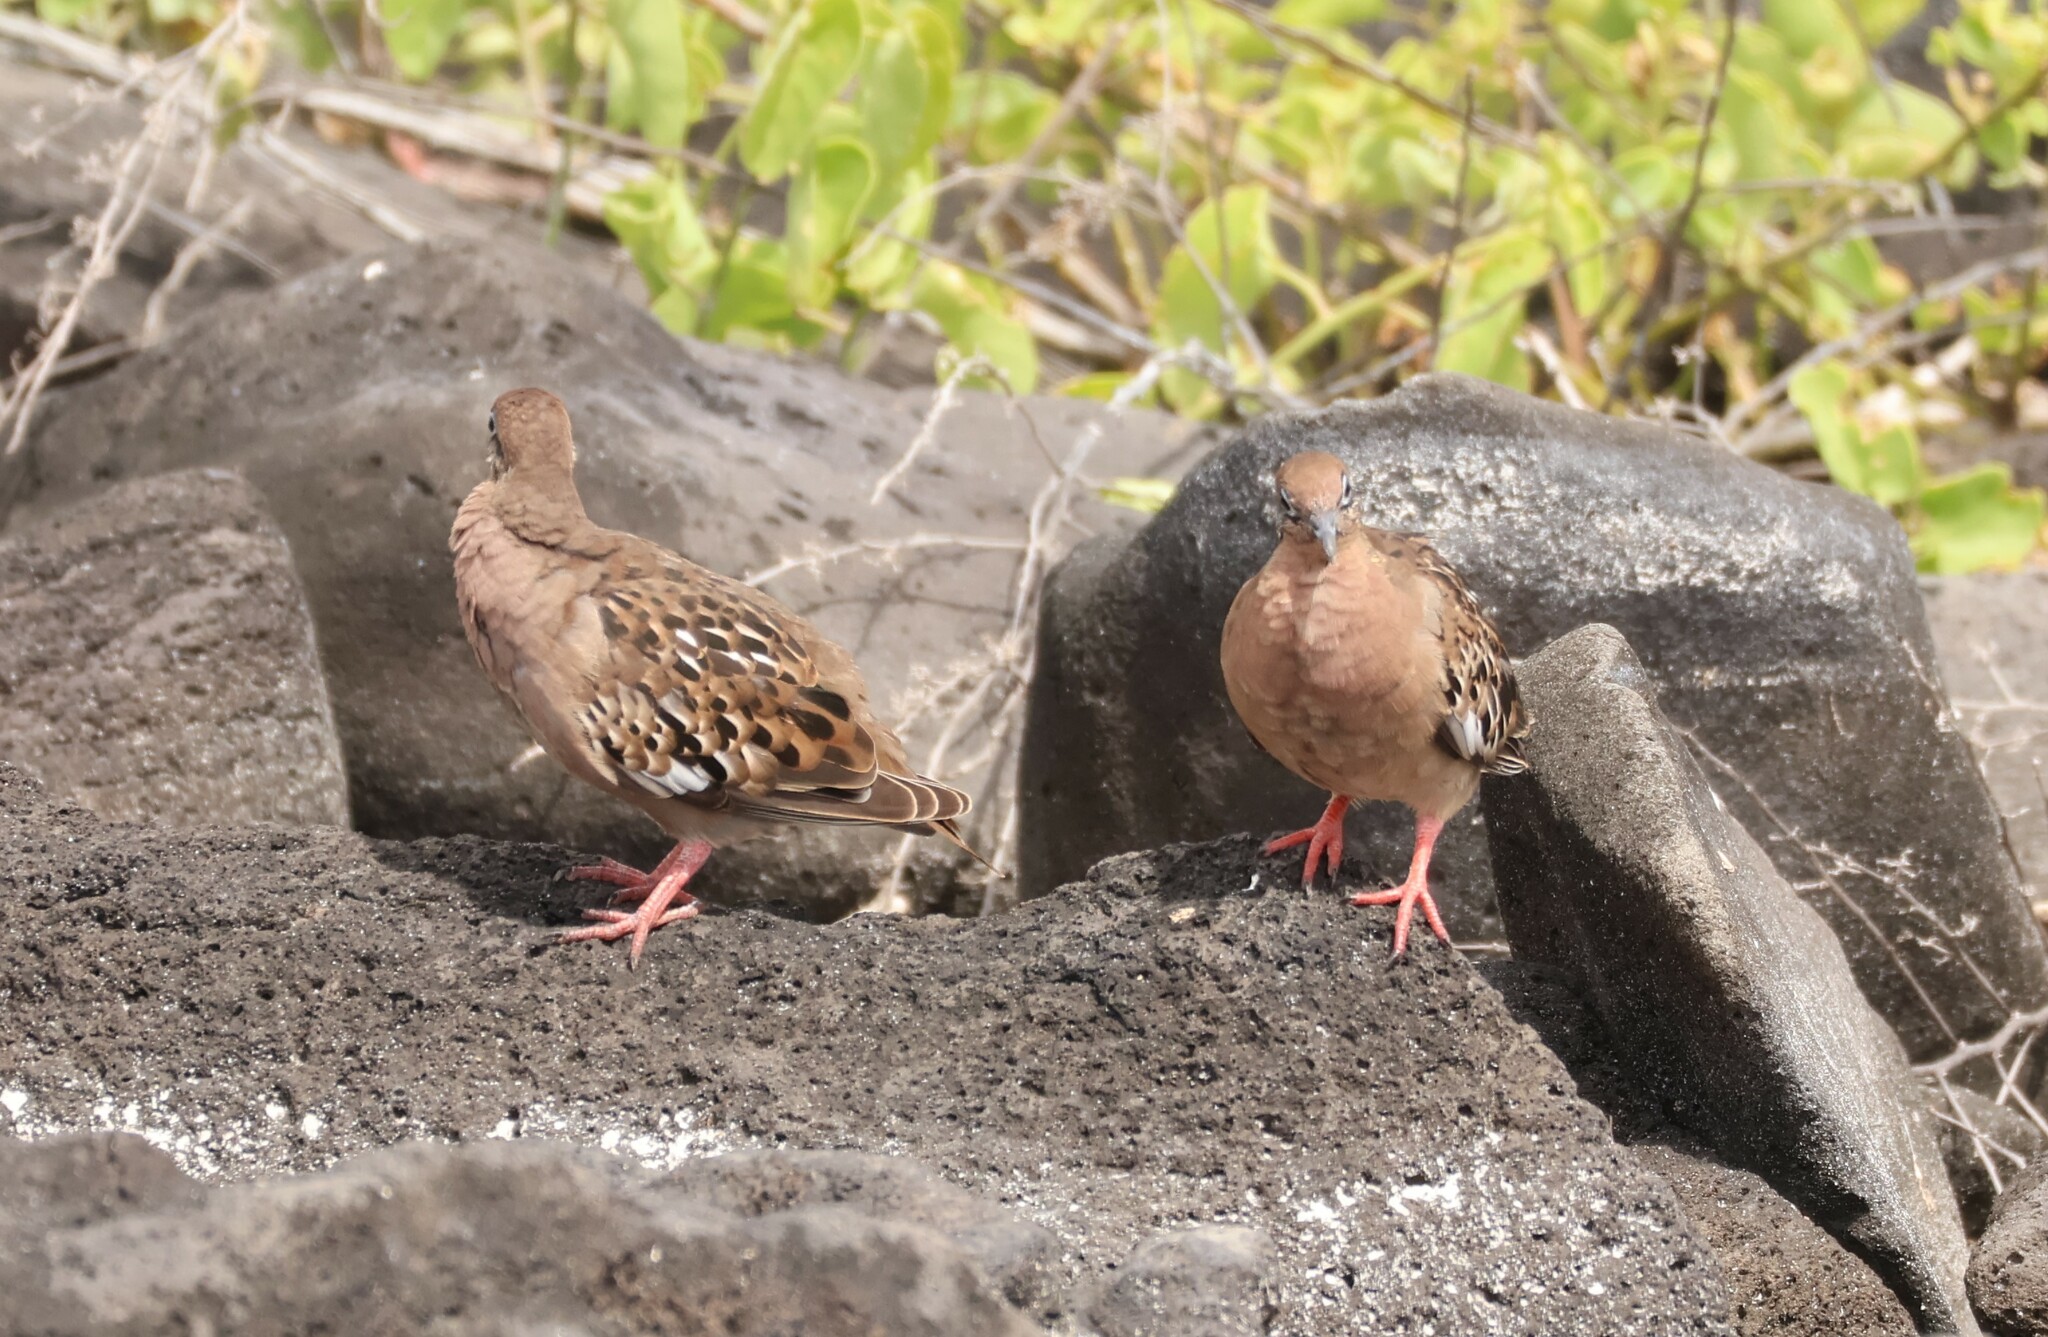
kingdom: Animalia
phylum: Chordata
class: Aves
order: Columbiformes
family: Columbidae
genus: Zenaida
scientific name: Zenaida galapagoensis
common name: Galapagos dove
